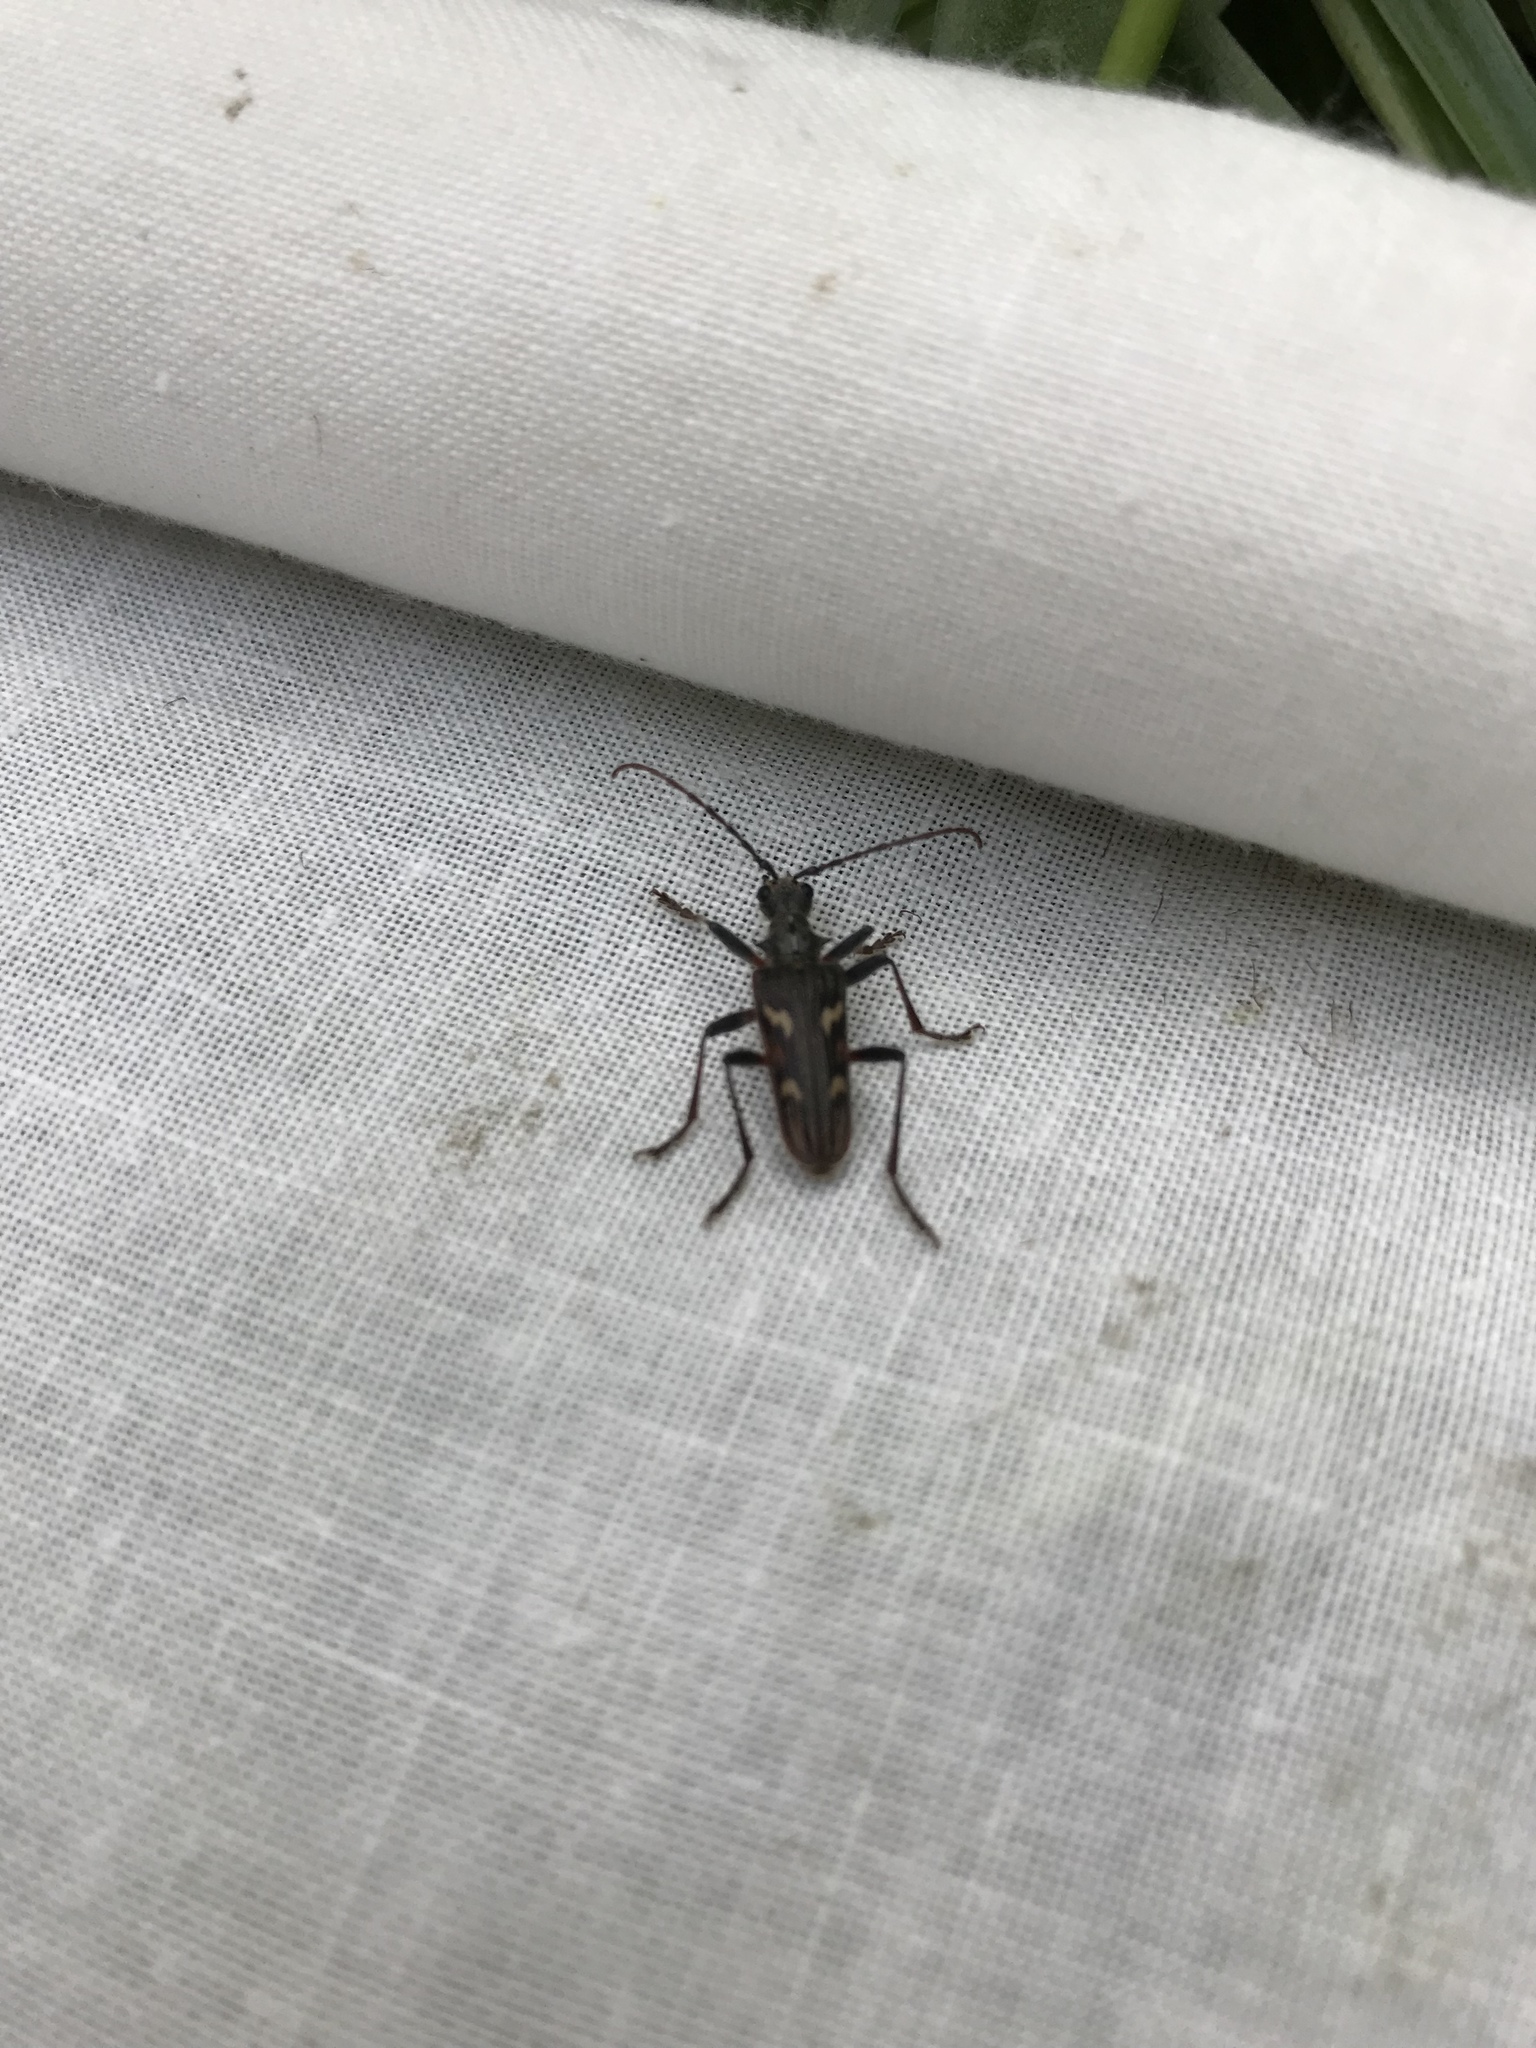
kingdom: Animalia
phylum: Arthropoda
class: Insecta
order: Coleoptera
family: Cerambycidae
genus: Rhagium
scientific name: Rhagium bifasciatum
